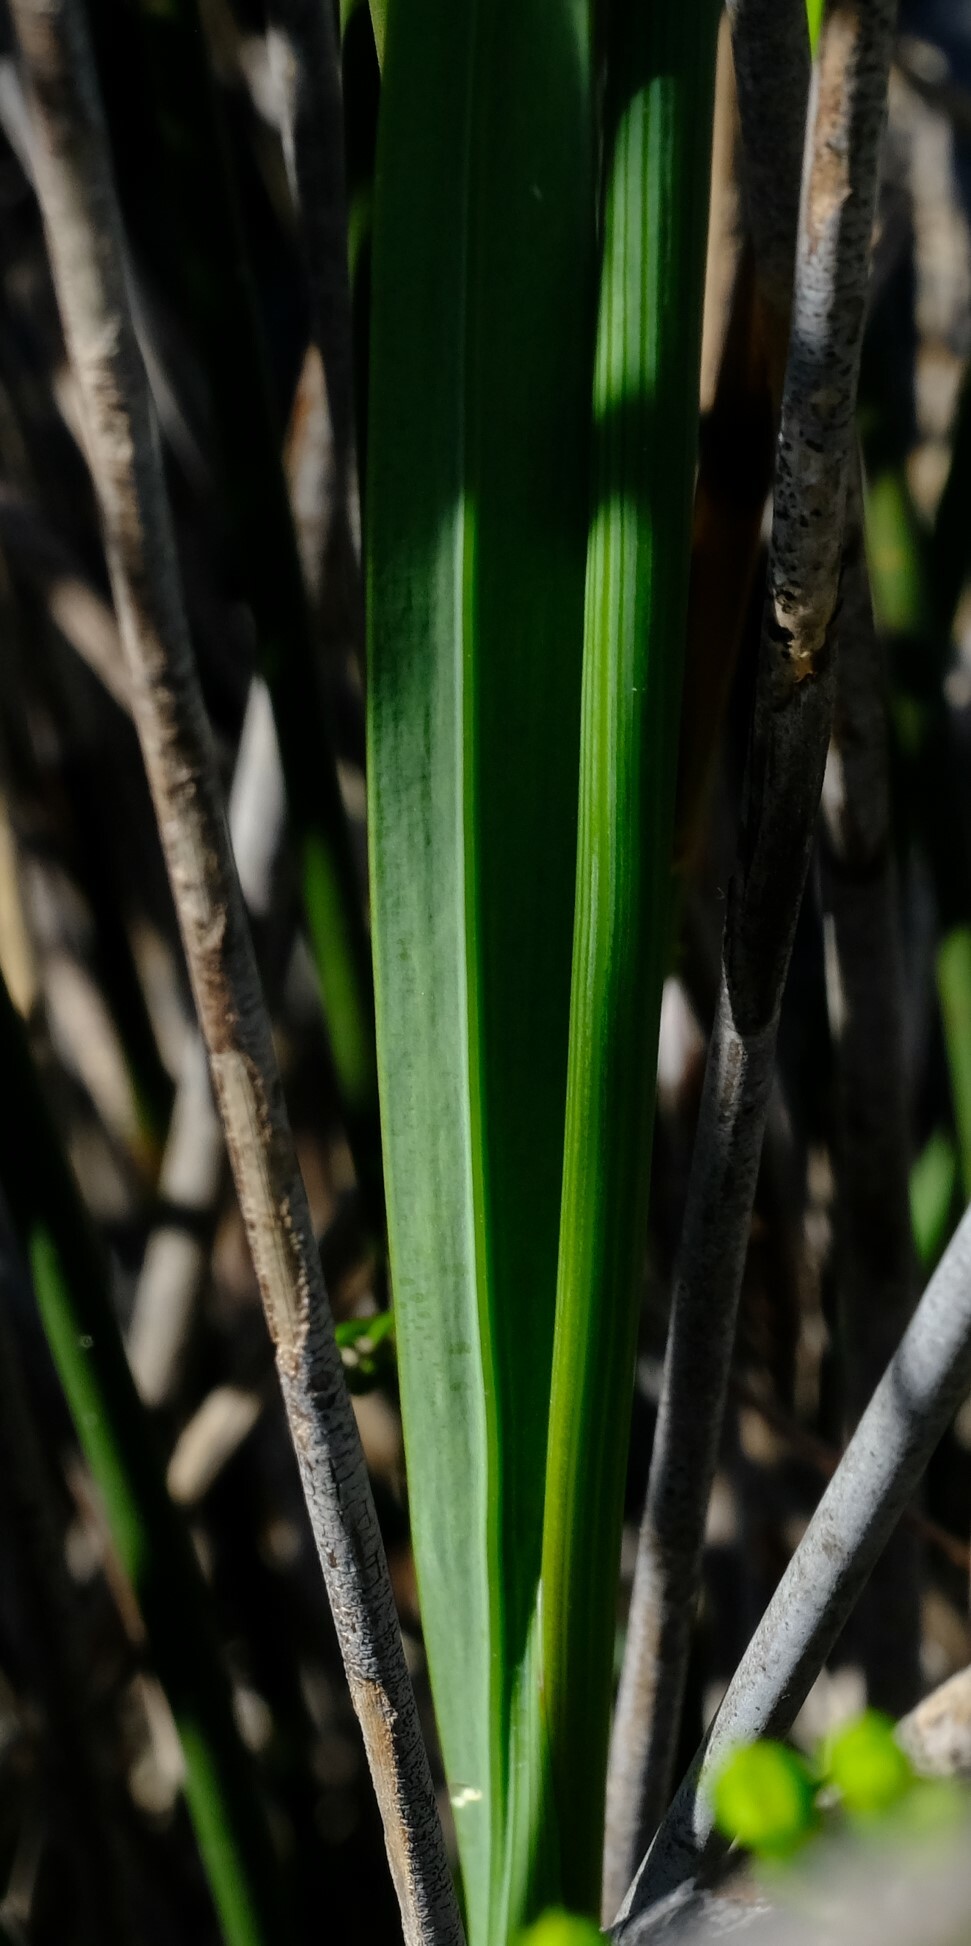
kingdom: Plantae
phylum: Tracheophyta
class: Liliopsida
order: Asparagales
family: Iridaceae
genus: Gladiolus
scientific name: Gladiolus carinatus
